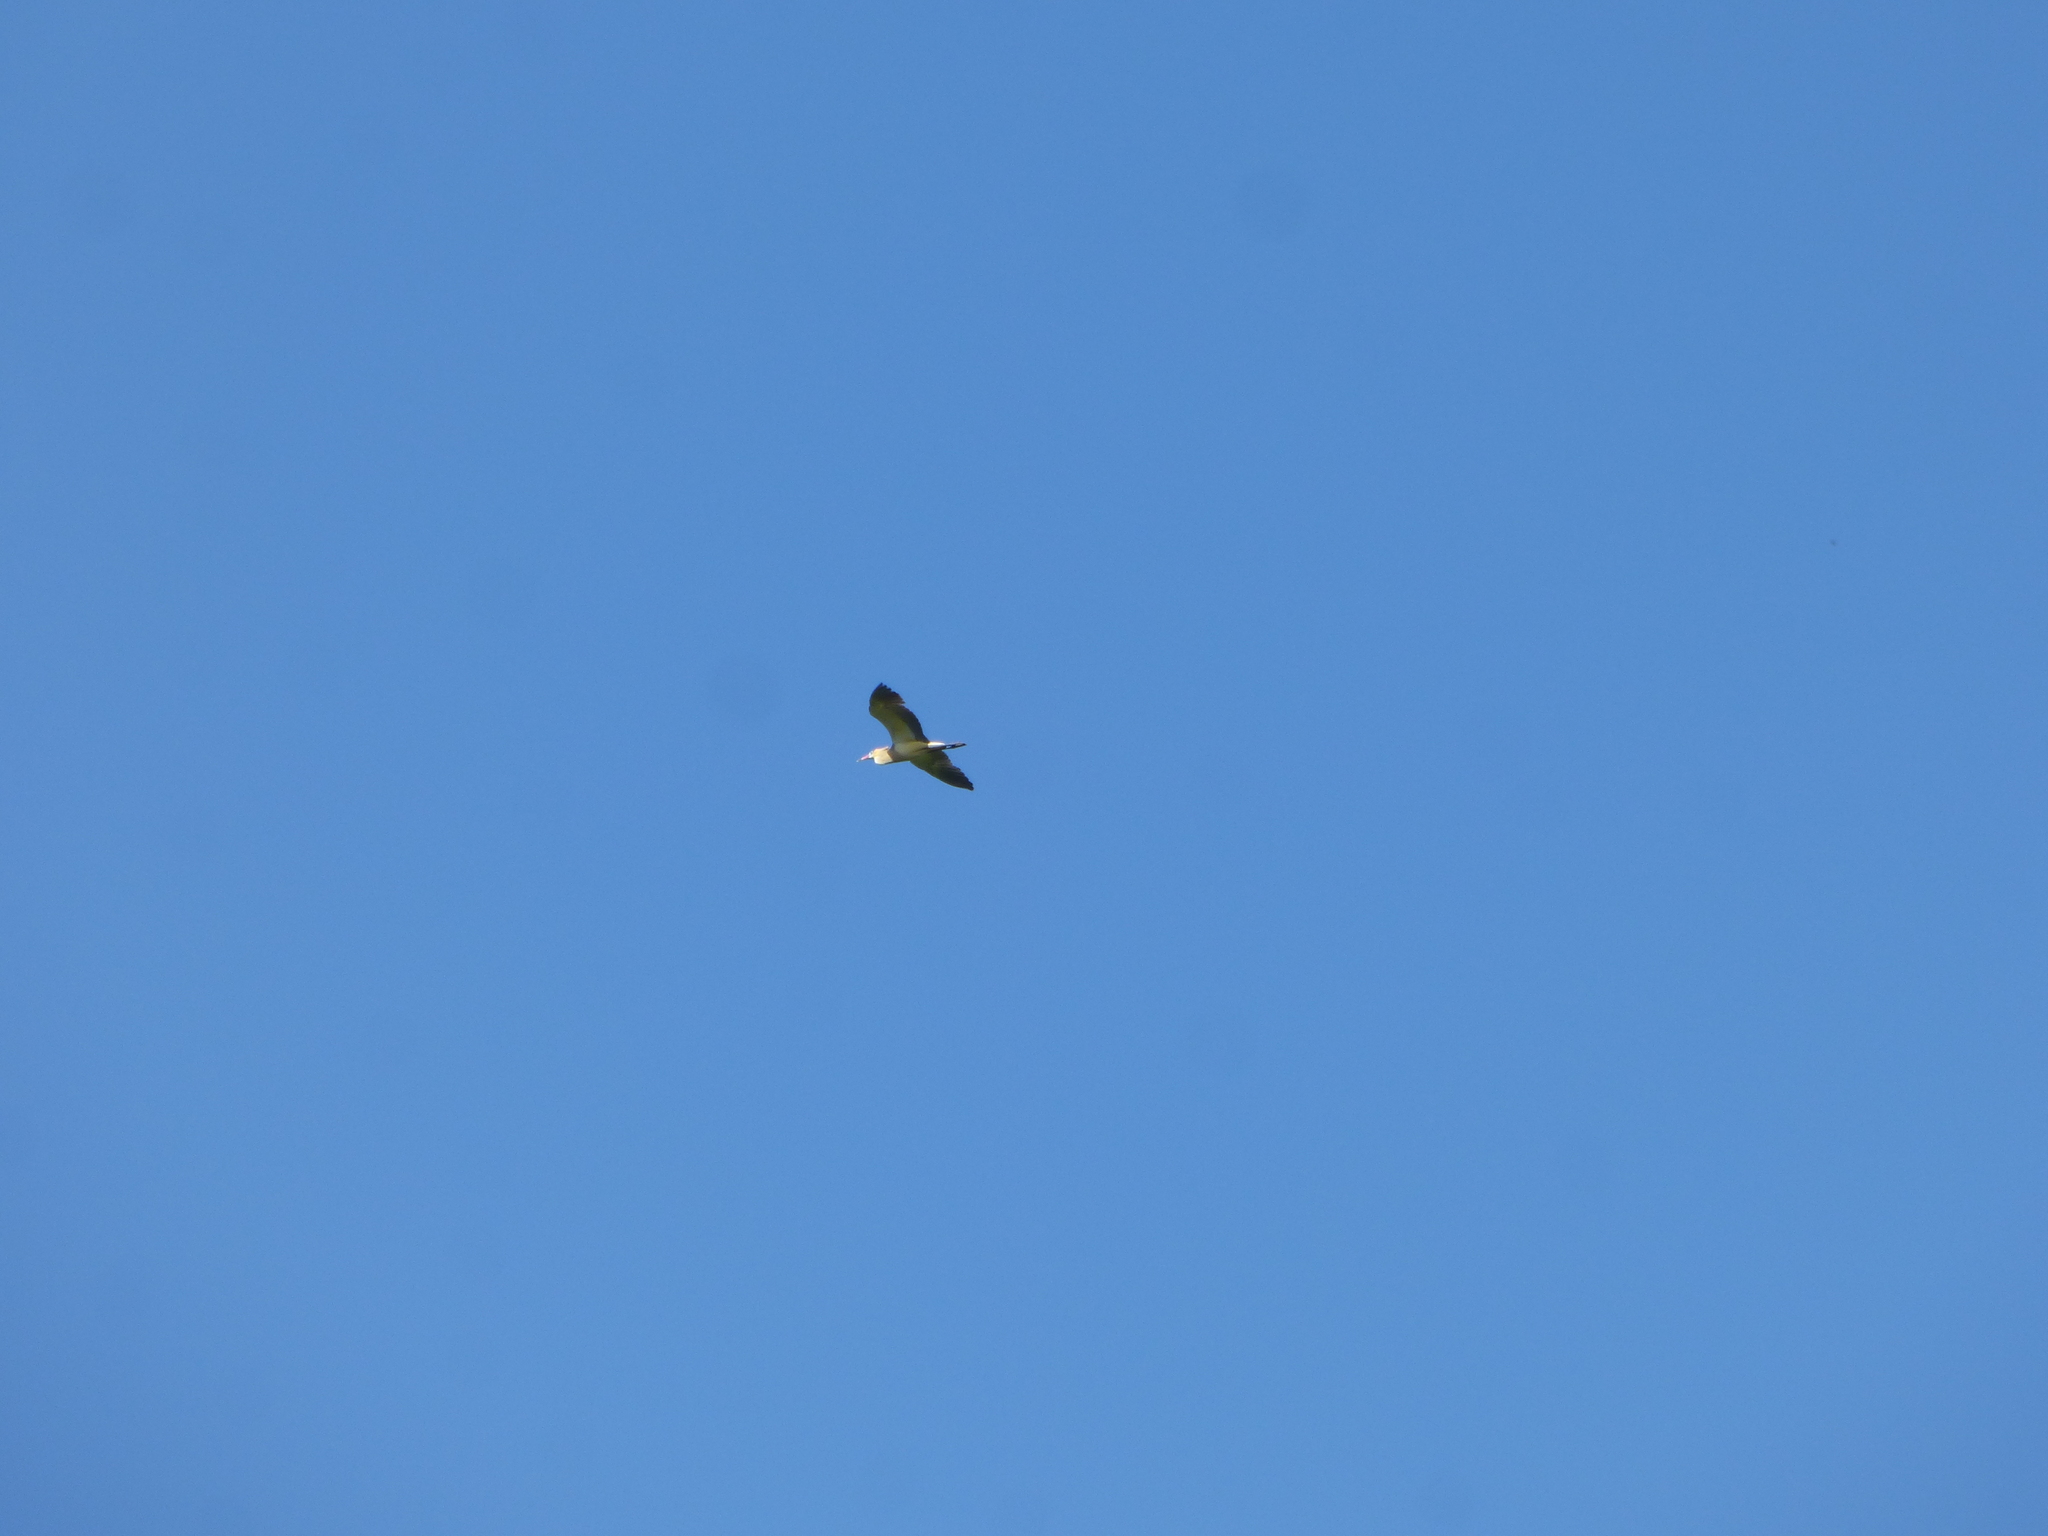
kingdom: Animalia
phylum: Chordata
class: Aves
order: Pelecaniformes
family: Ardeidae
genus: Syrigma
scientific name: Syrigma sibilatrix
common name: Whistling heron
